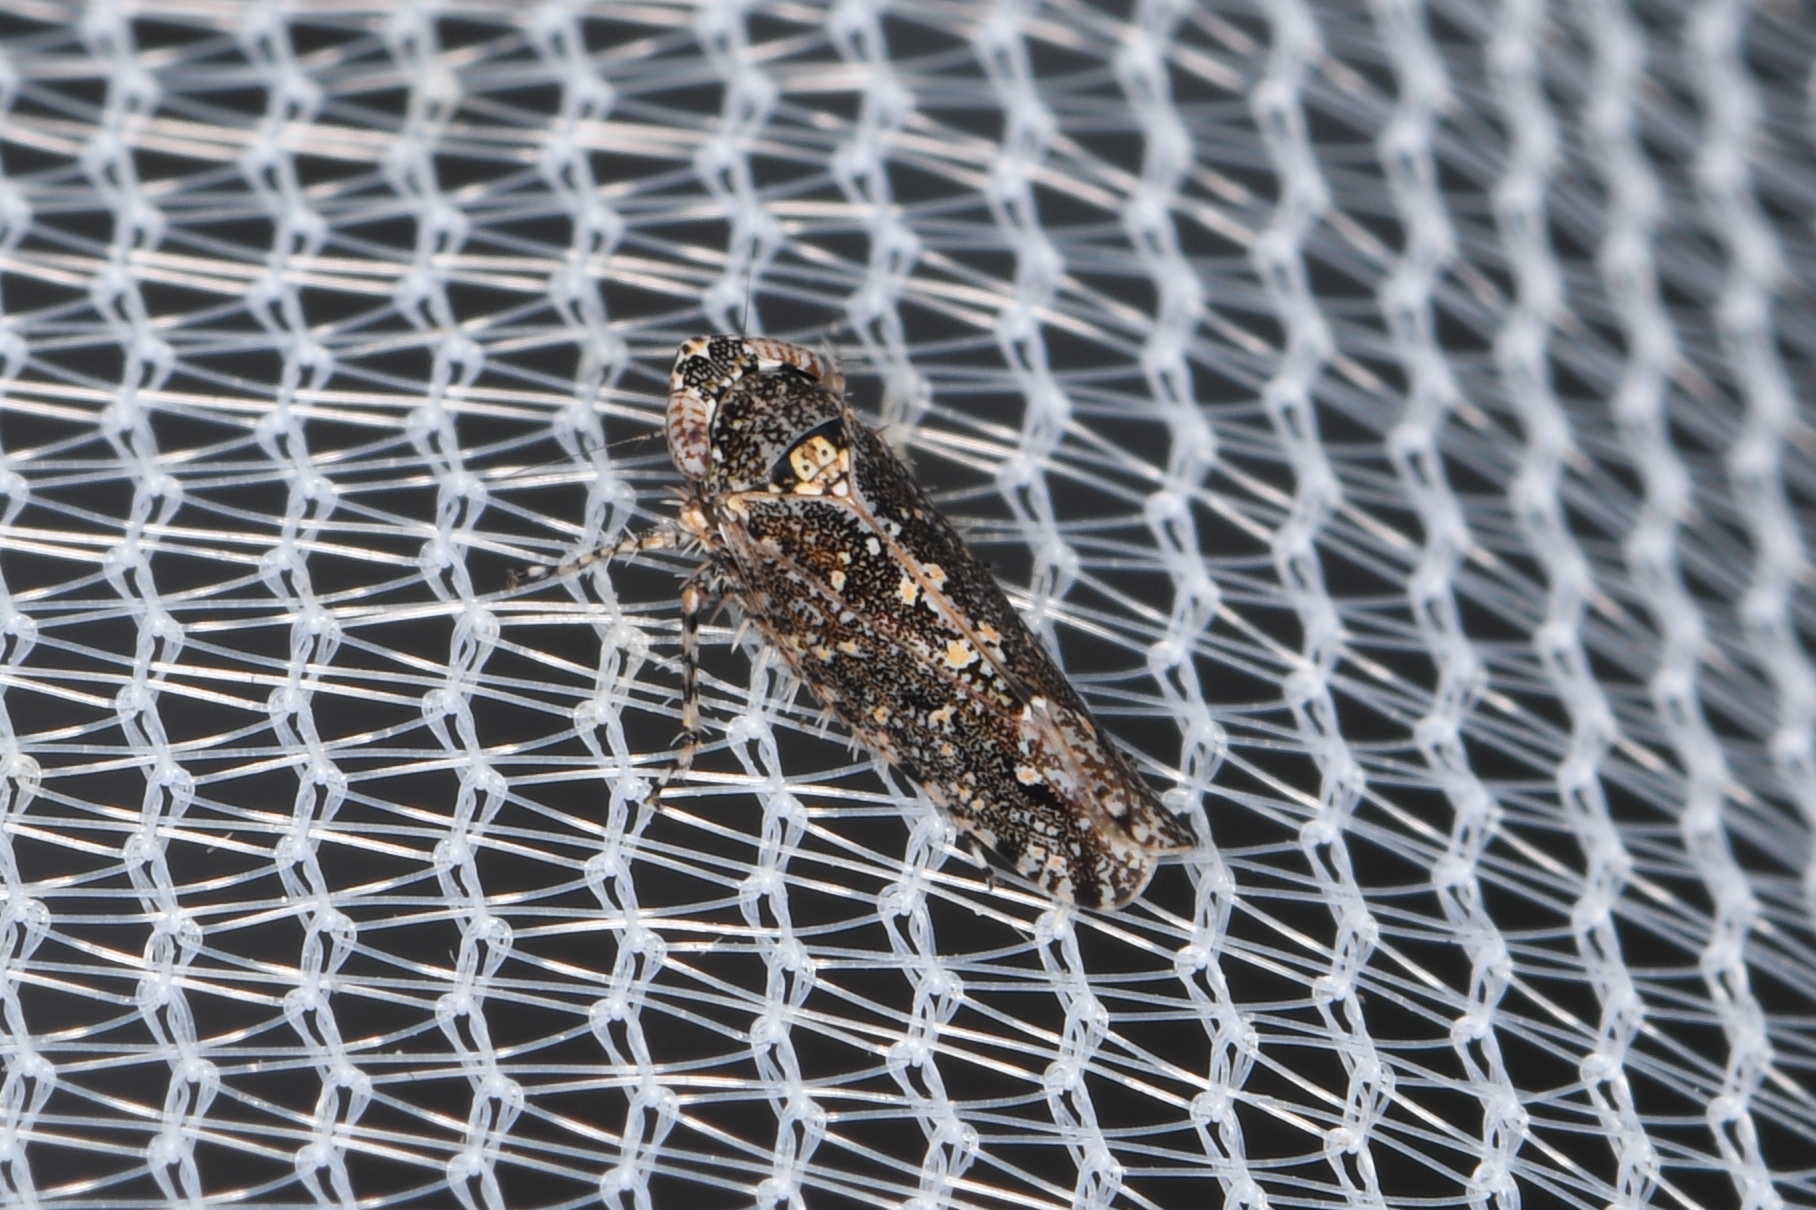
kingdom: Animalia
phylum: Arthropoda
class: Insecta
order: Hemiptera
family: Cicadellidae
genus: Dixianus
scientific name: Dixianus utahnus
